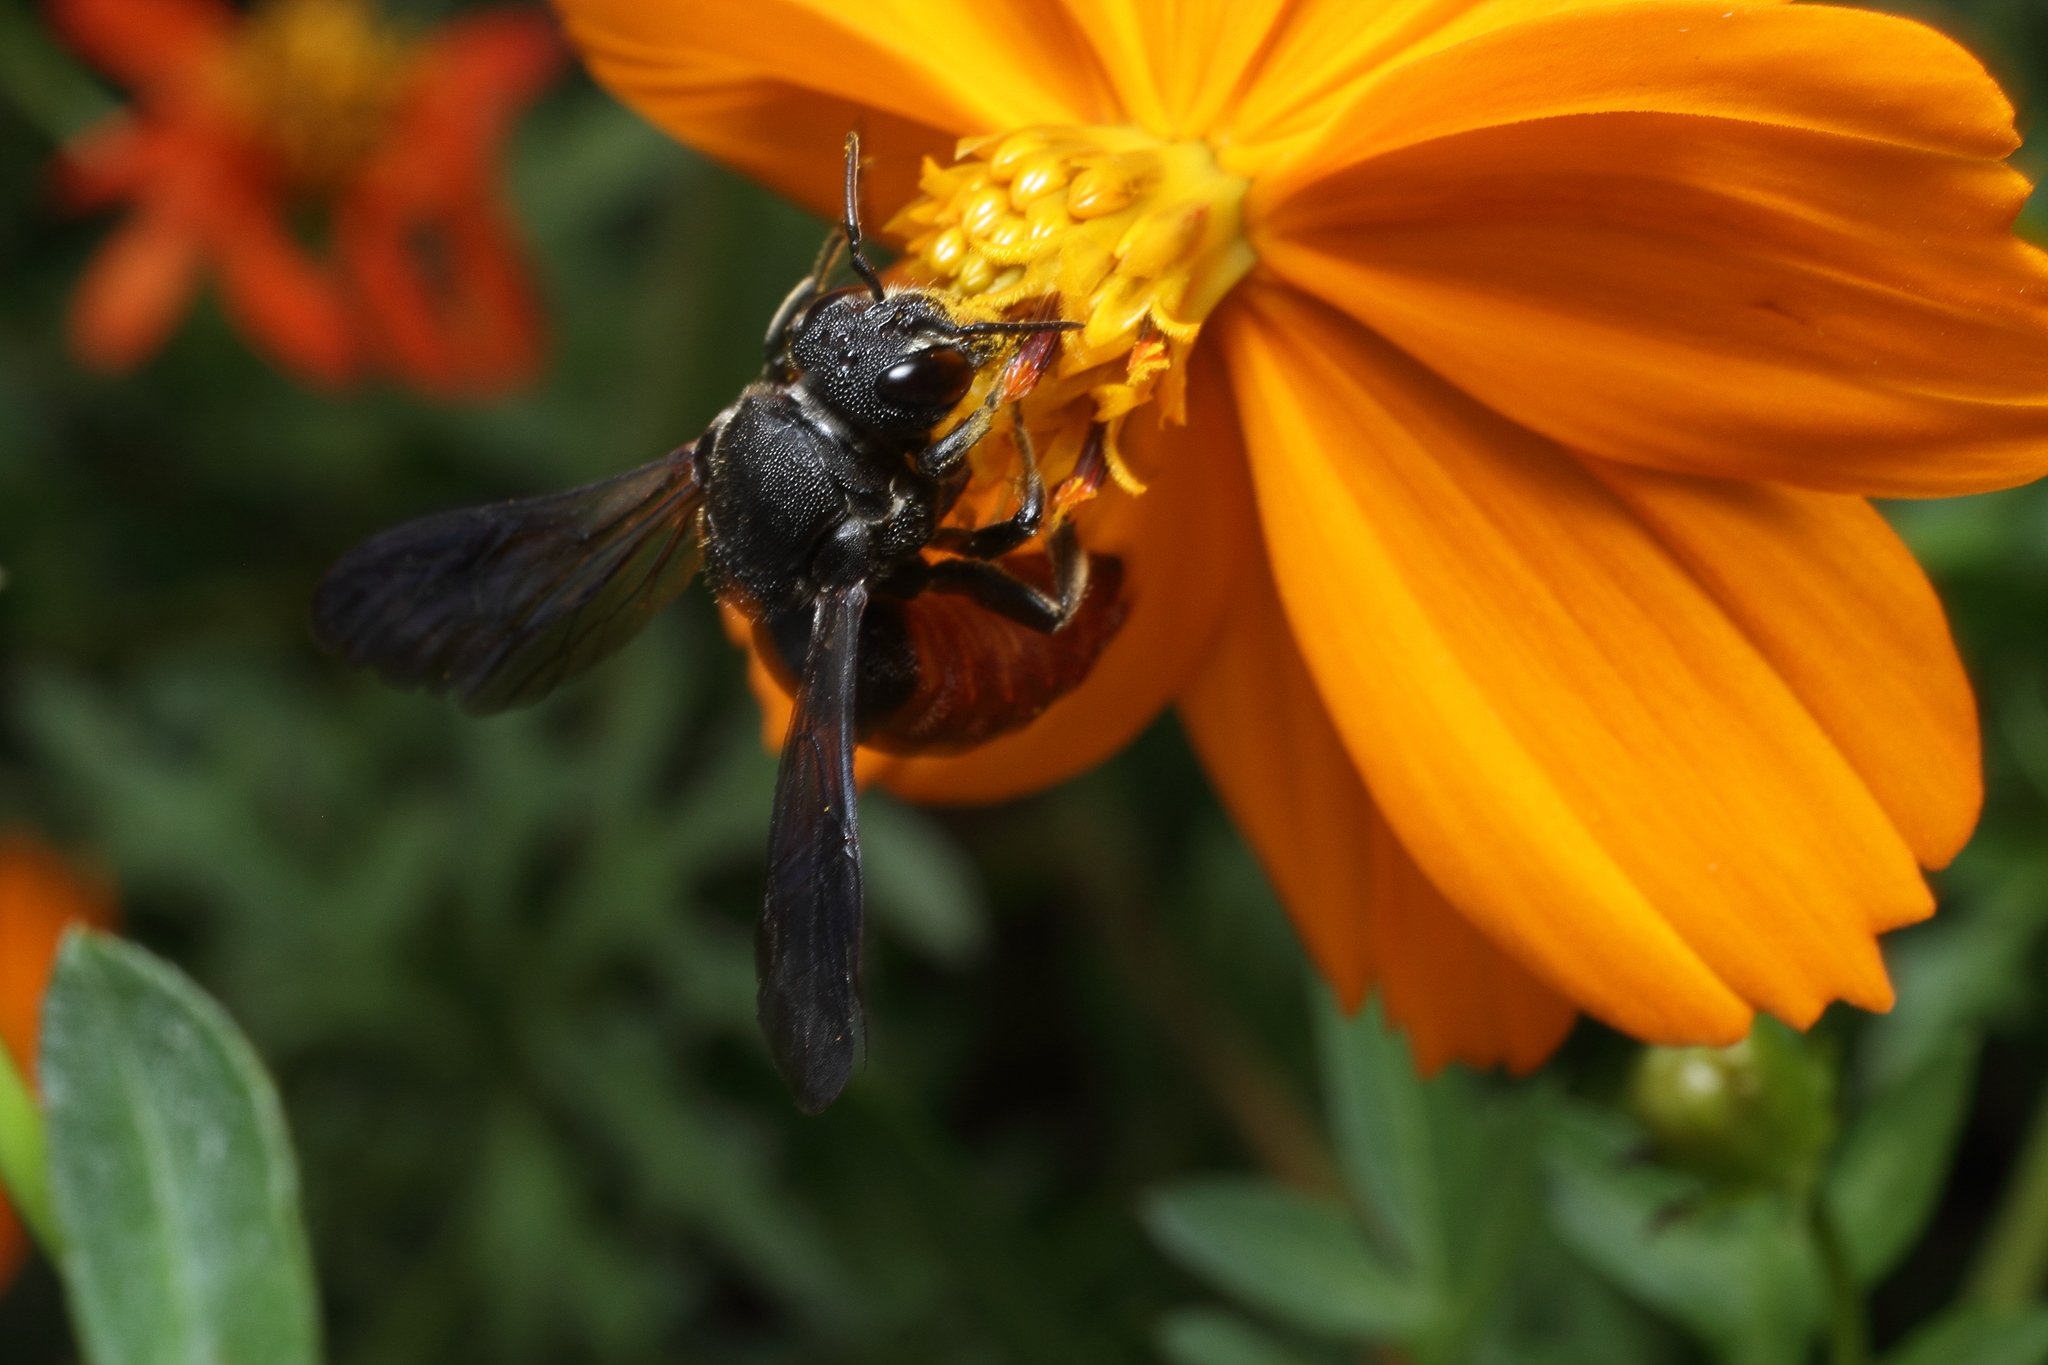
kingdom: Animalia
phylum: Arthropoda
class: Insecta
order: Hymenoptera
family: Megachilidae
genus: Euaspis
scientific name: Euaspis basalis
